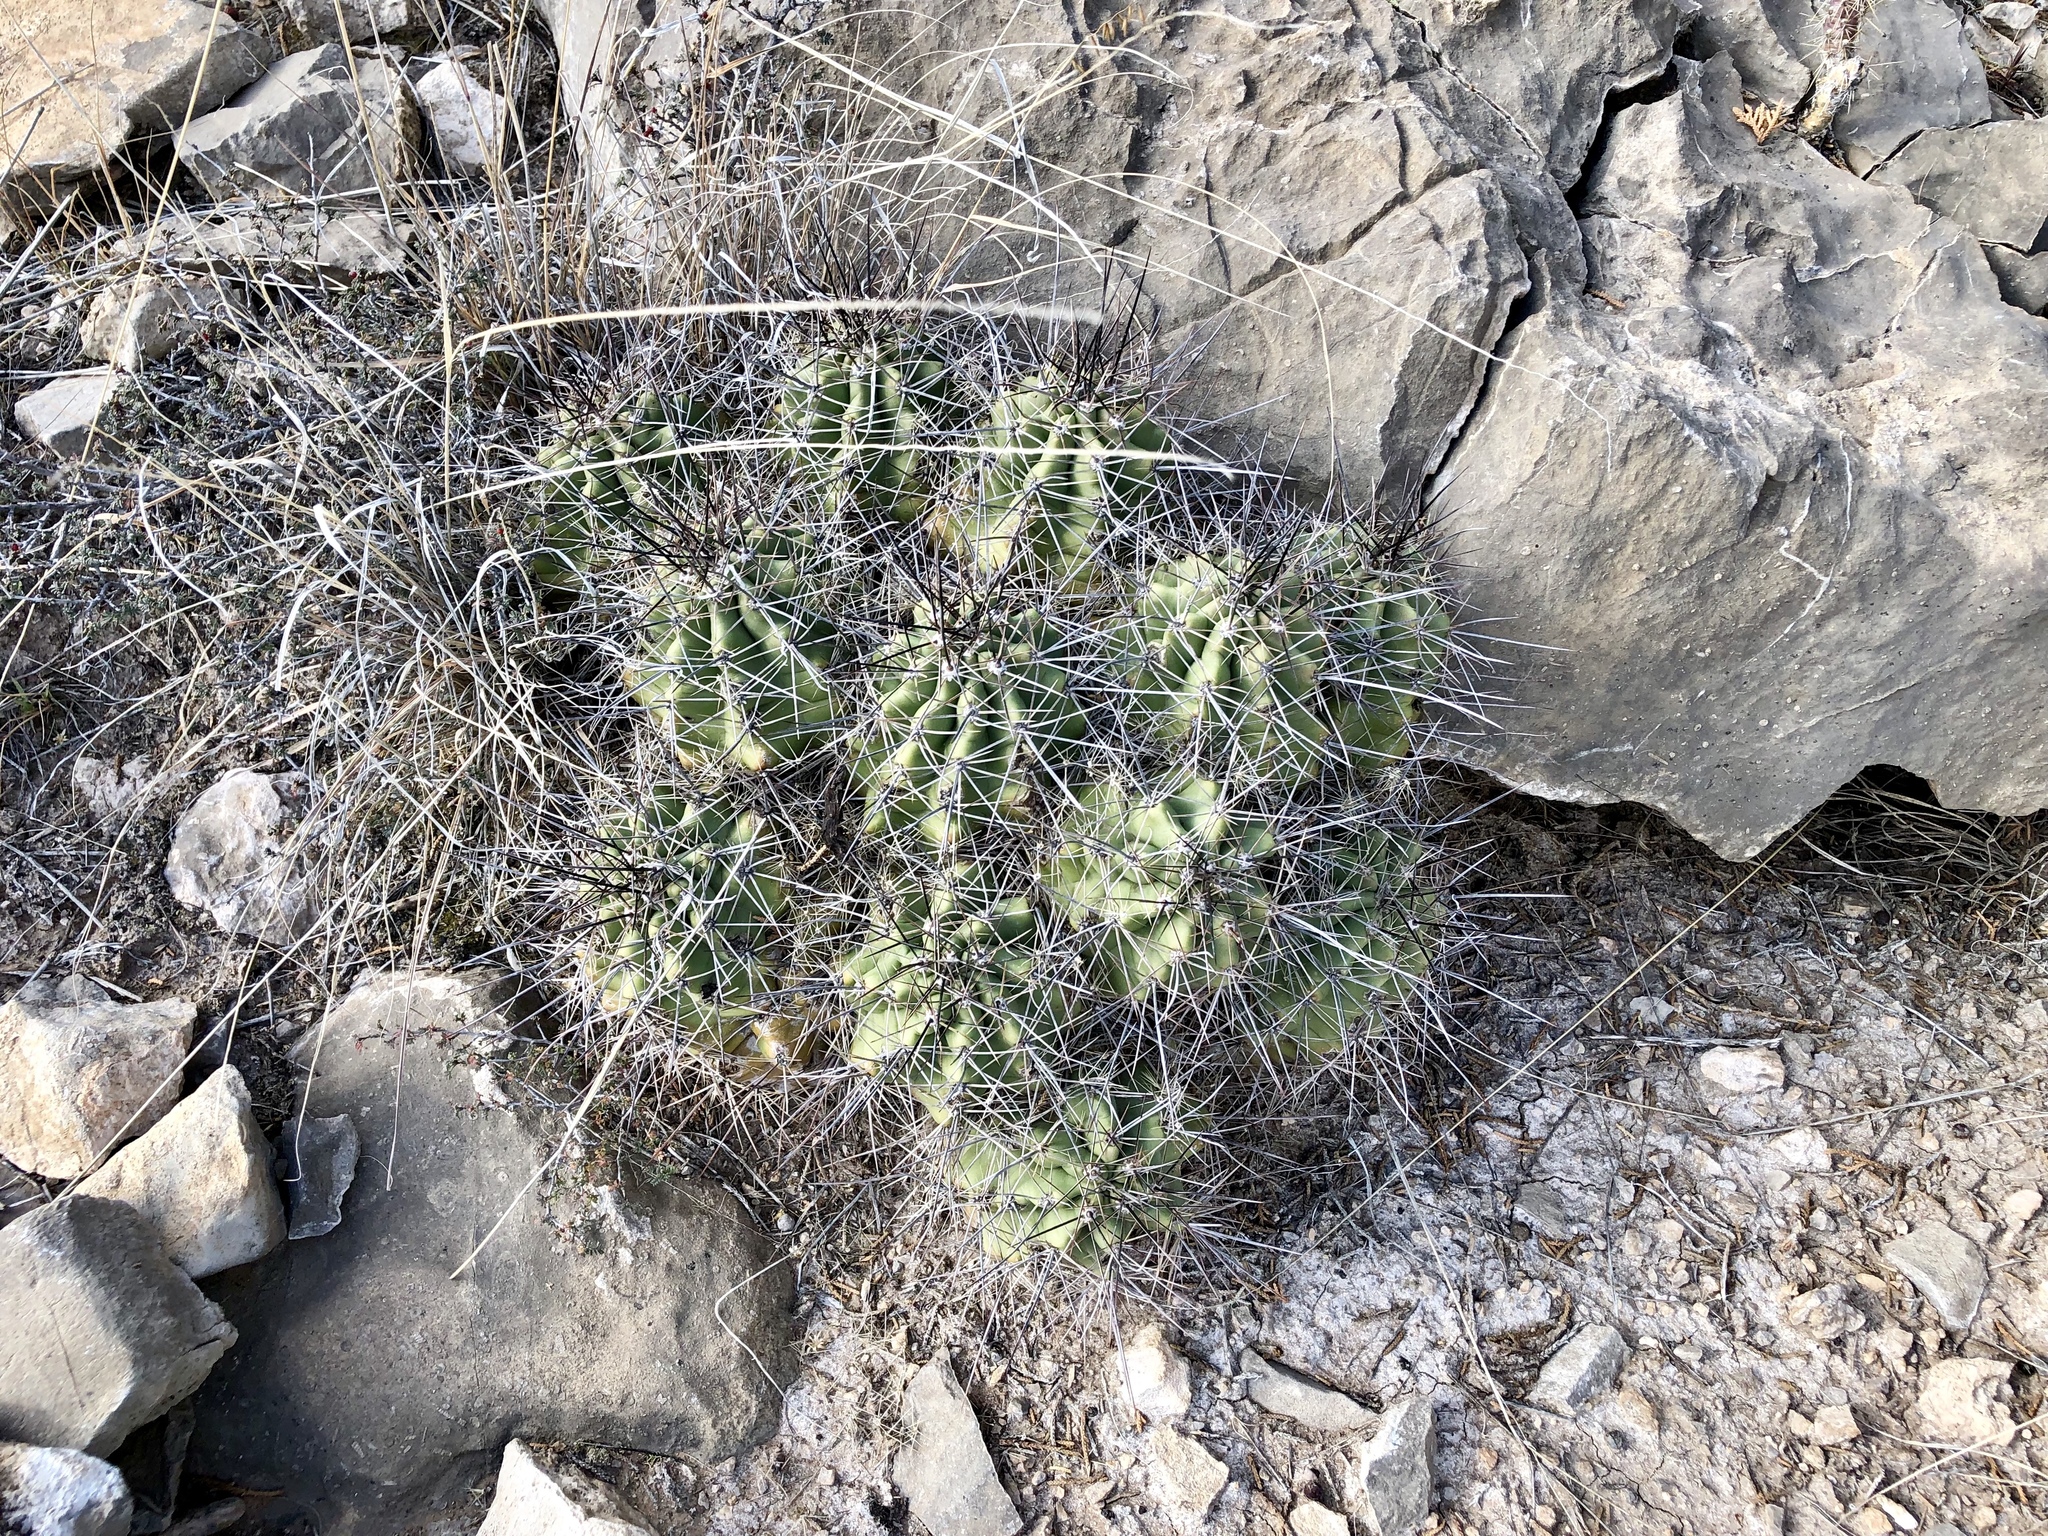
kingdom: Plantae
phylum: Tracheophyta
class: Magnoliopsida
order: Caryophyllales
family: Cactaceae
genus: Echinocereus
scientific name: Echinocereus coccineus
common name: Scarlet hedgehog cactus
